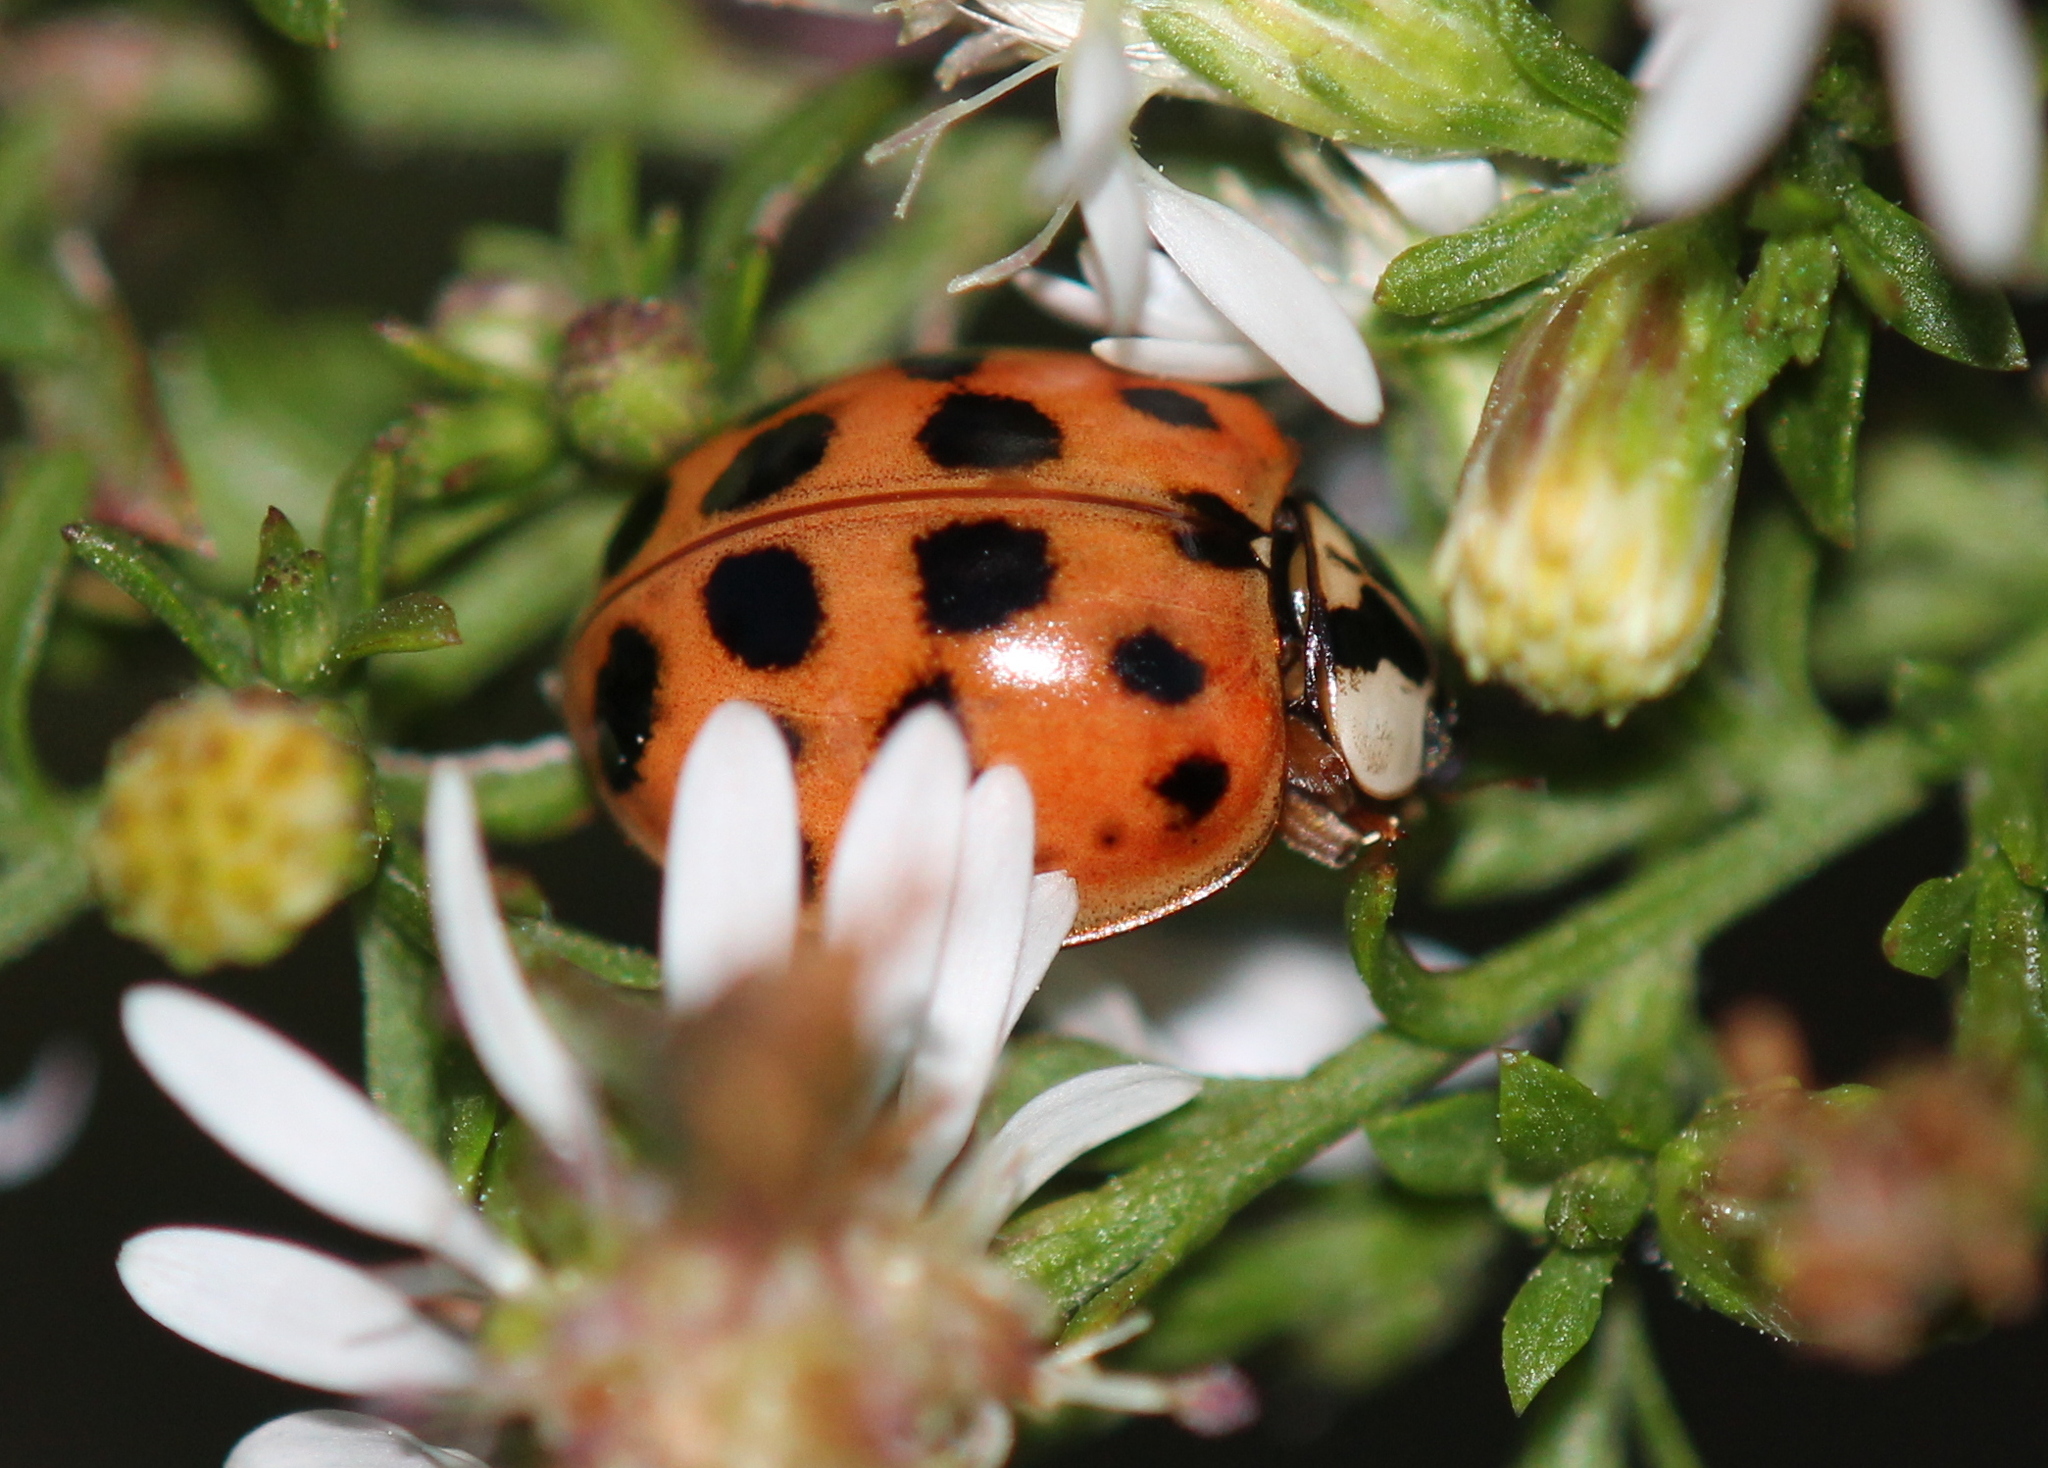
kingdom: Animalia
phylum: Arthropoda
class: Insecta
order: Coleoptera
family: Coccinellidae
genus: Harmonia
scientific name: Harmonia axyridis
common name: Harlequin ladybird
